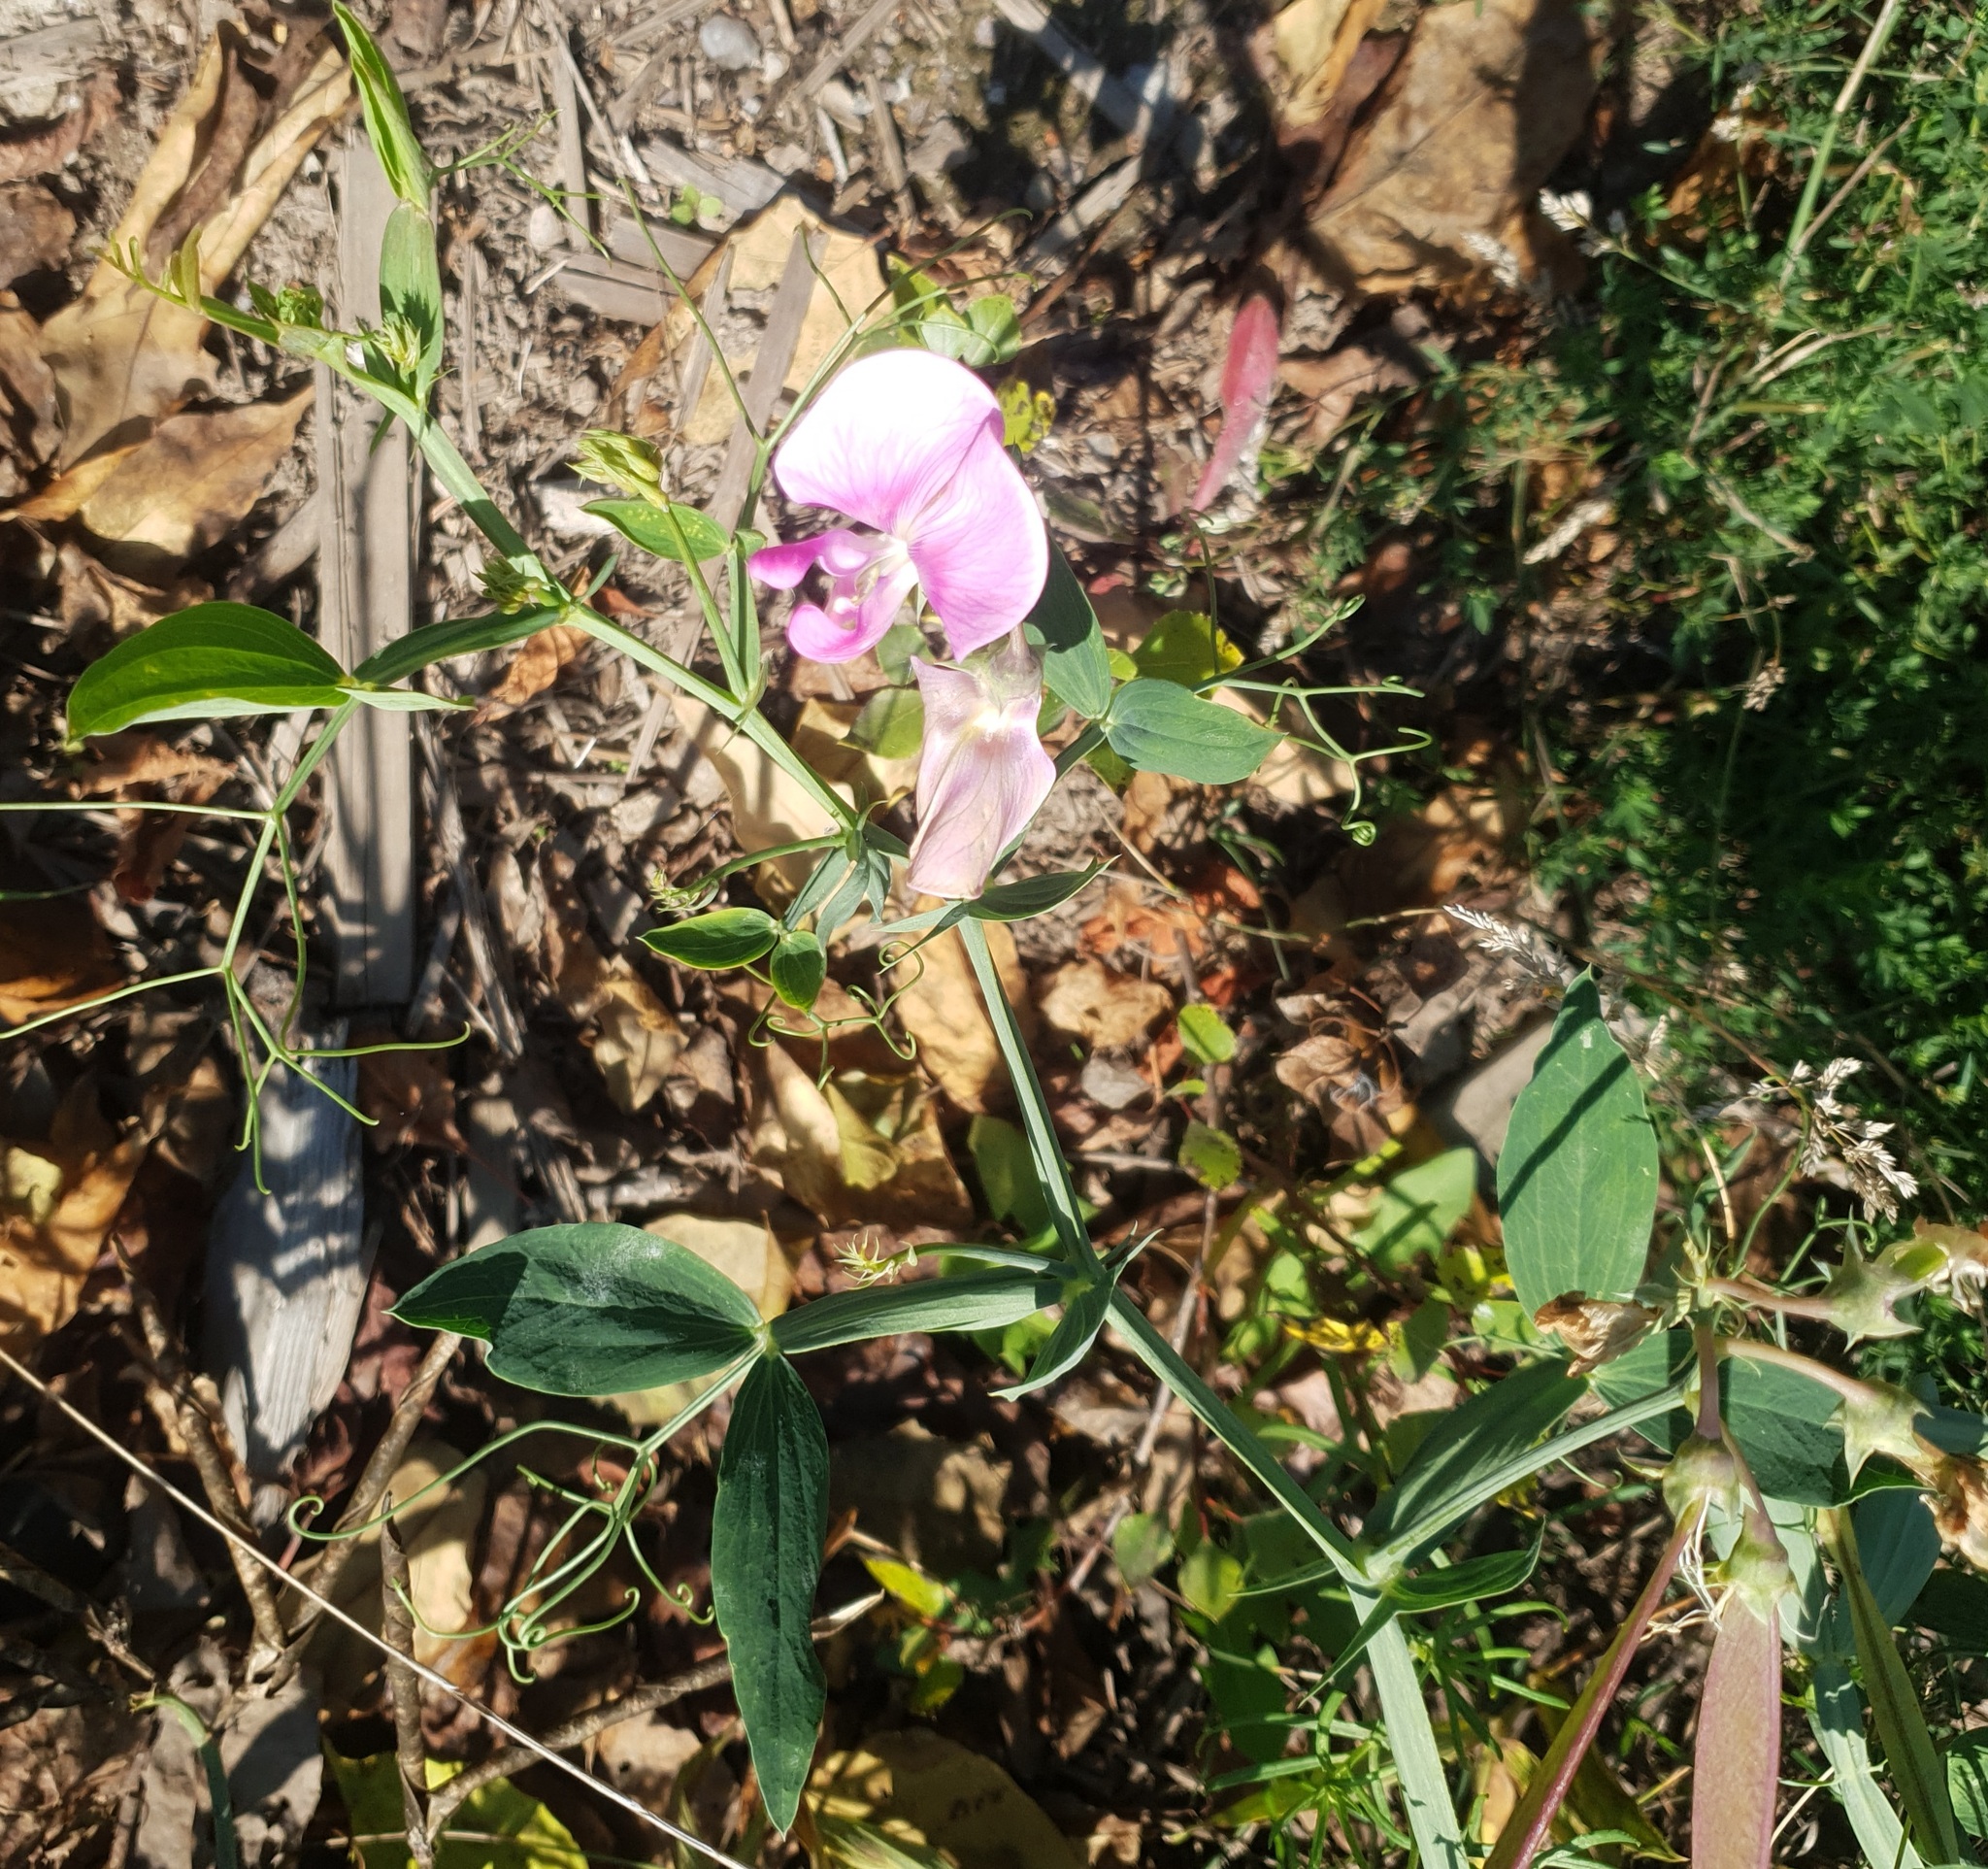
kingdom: Plantae
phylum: Tracheophyta
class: Magnoliopsida
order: Fabales
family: Fabaceae
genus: Lathyrus
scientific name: Lathyrus latifolius
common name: Perennial pea
